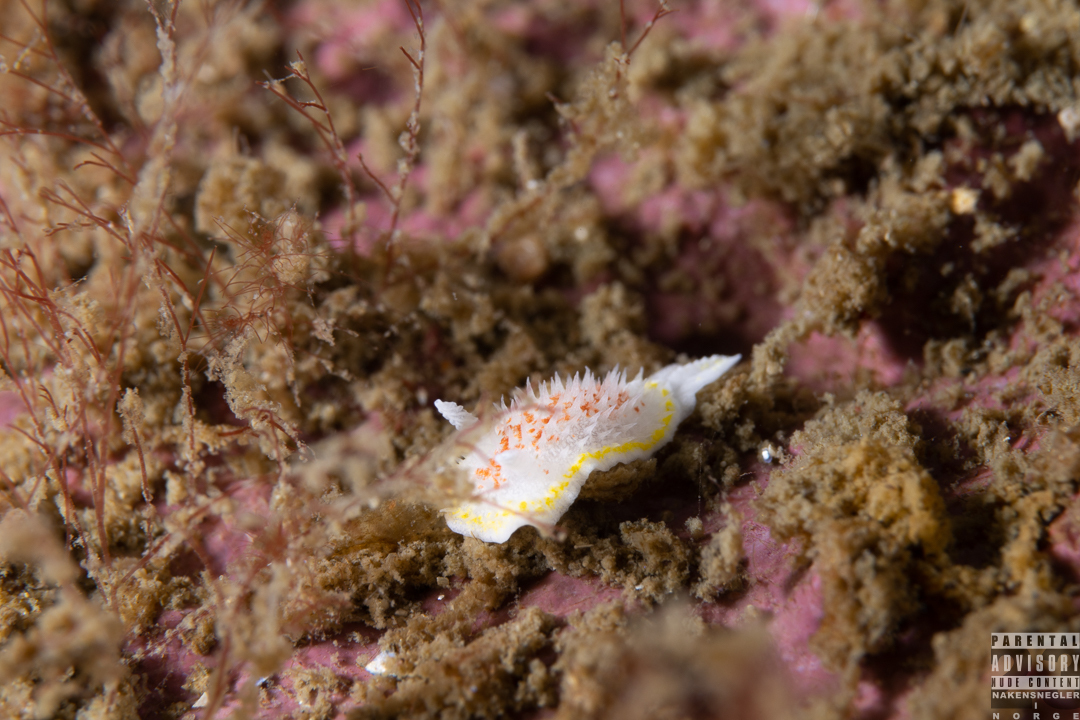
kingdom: Animalia
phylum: Mollusca
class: Gastropoda
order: Nudibranchia
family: Calycidorididae
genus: Diaphorodoris
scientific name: Diaphorodoris luteocincta
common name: Fried egg nudibranch
